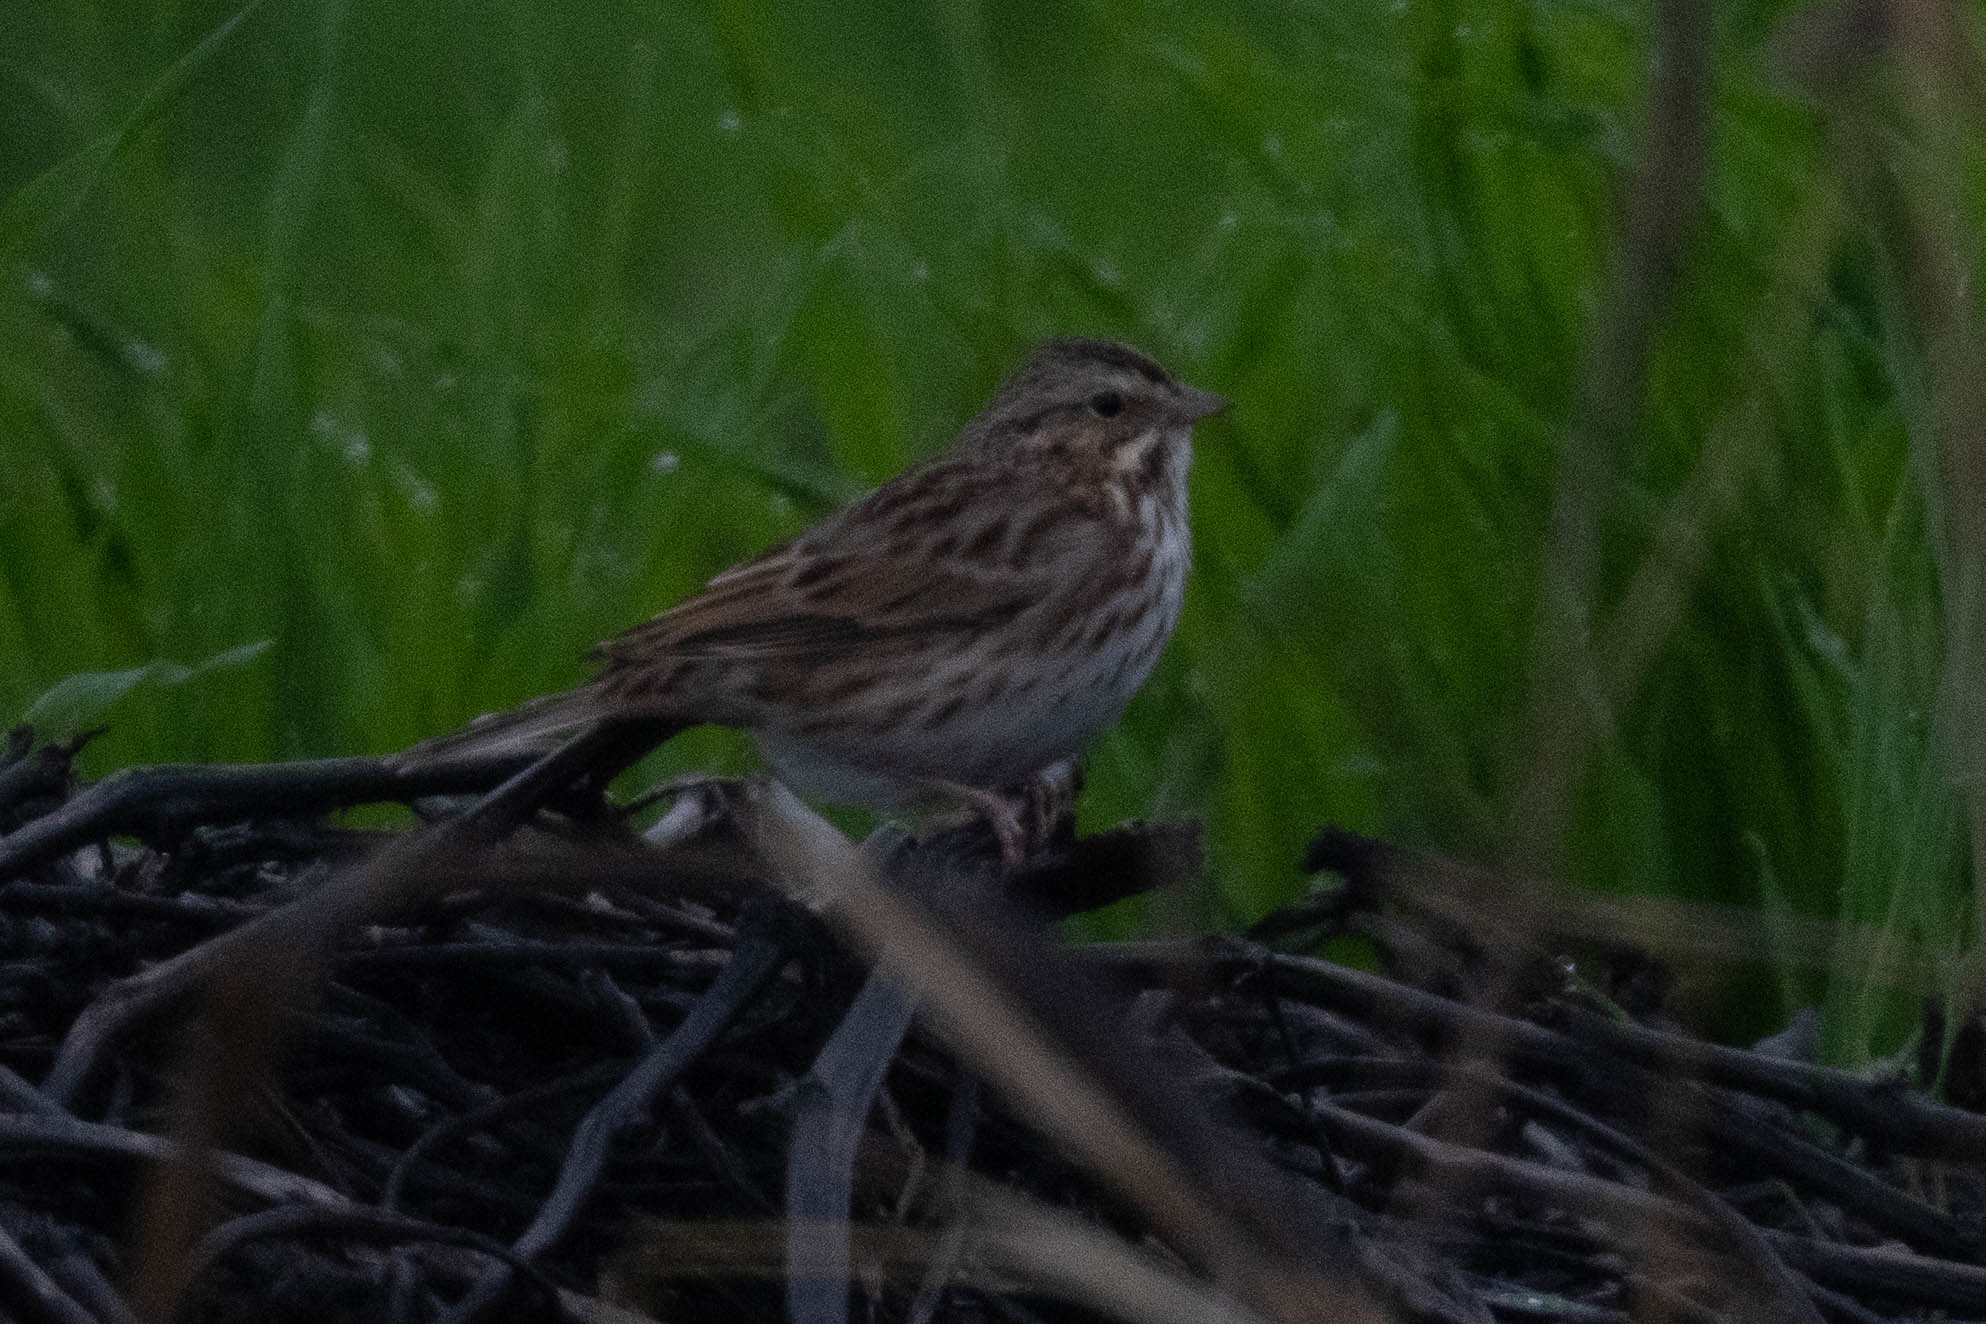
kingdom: Animalia
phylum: Chordata
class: Aves
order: Passeriformes
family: Passerellidae
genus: Passerculus
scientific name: Passerculus sandwichensis
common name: Savannah sparrow
